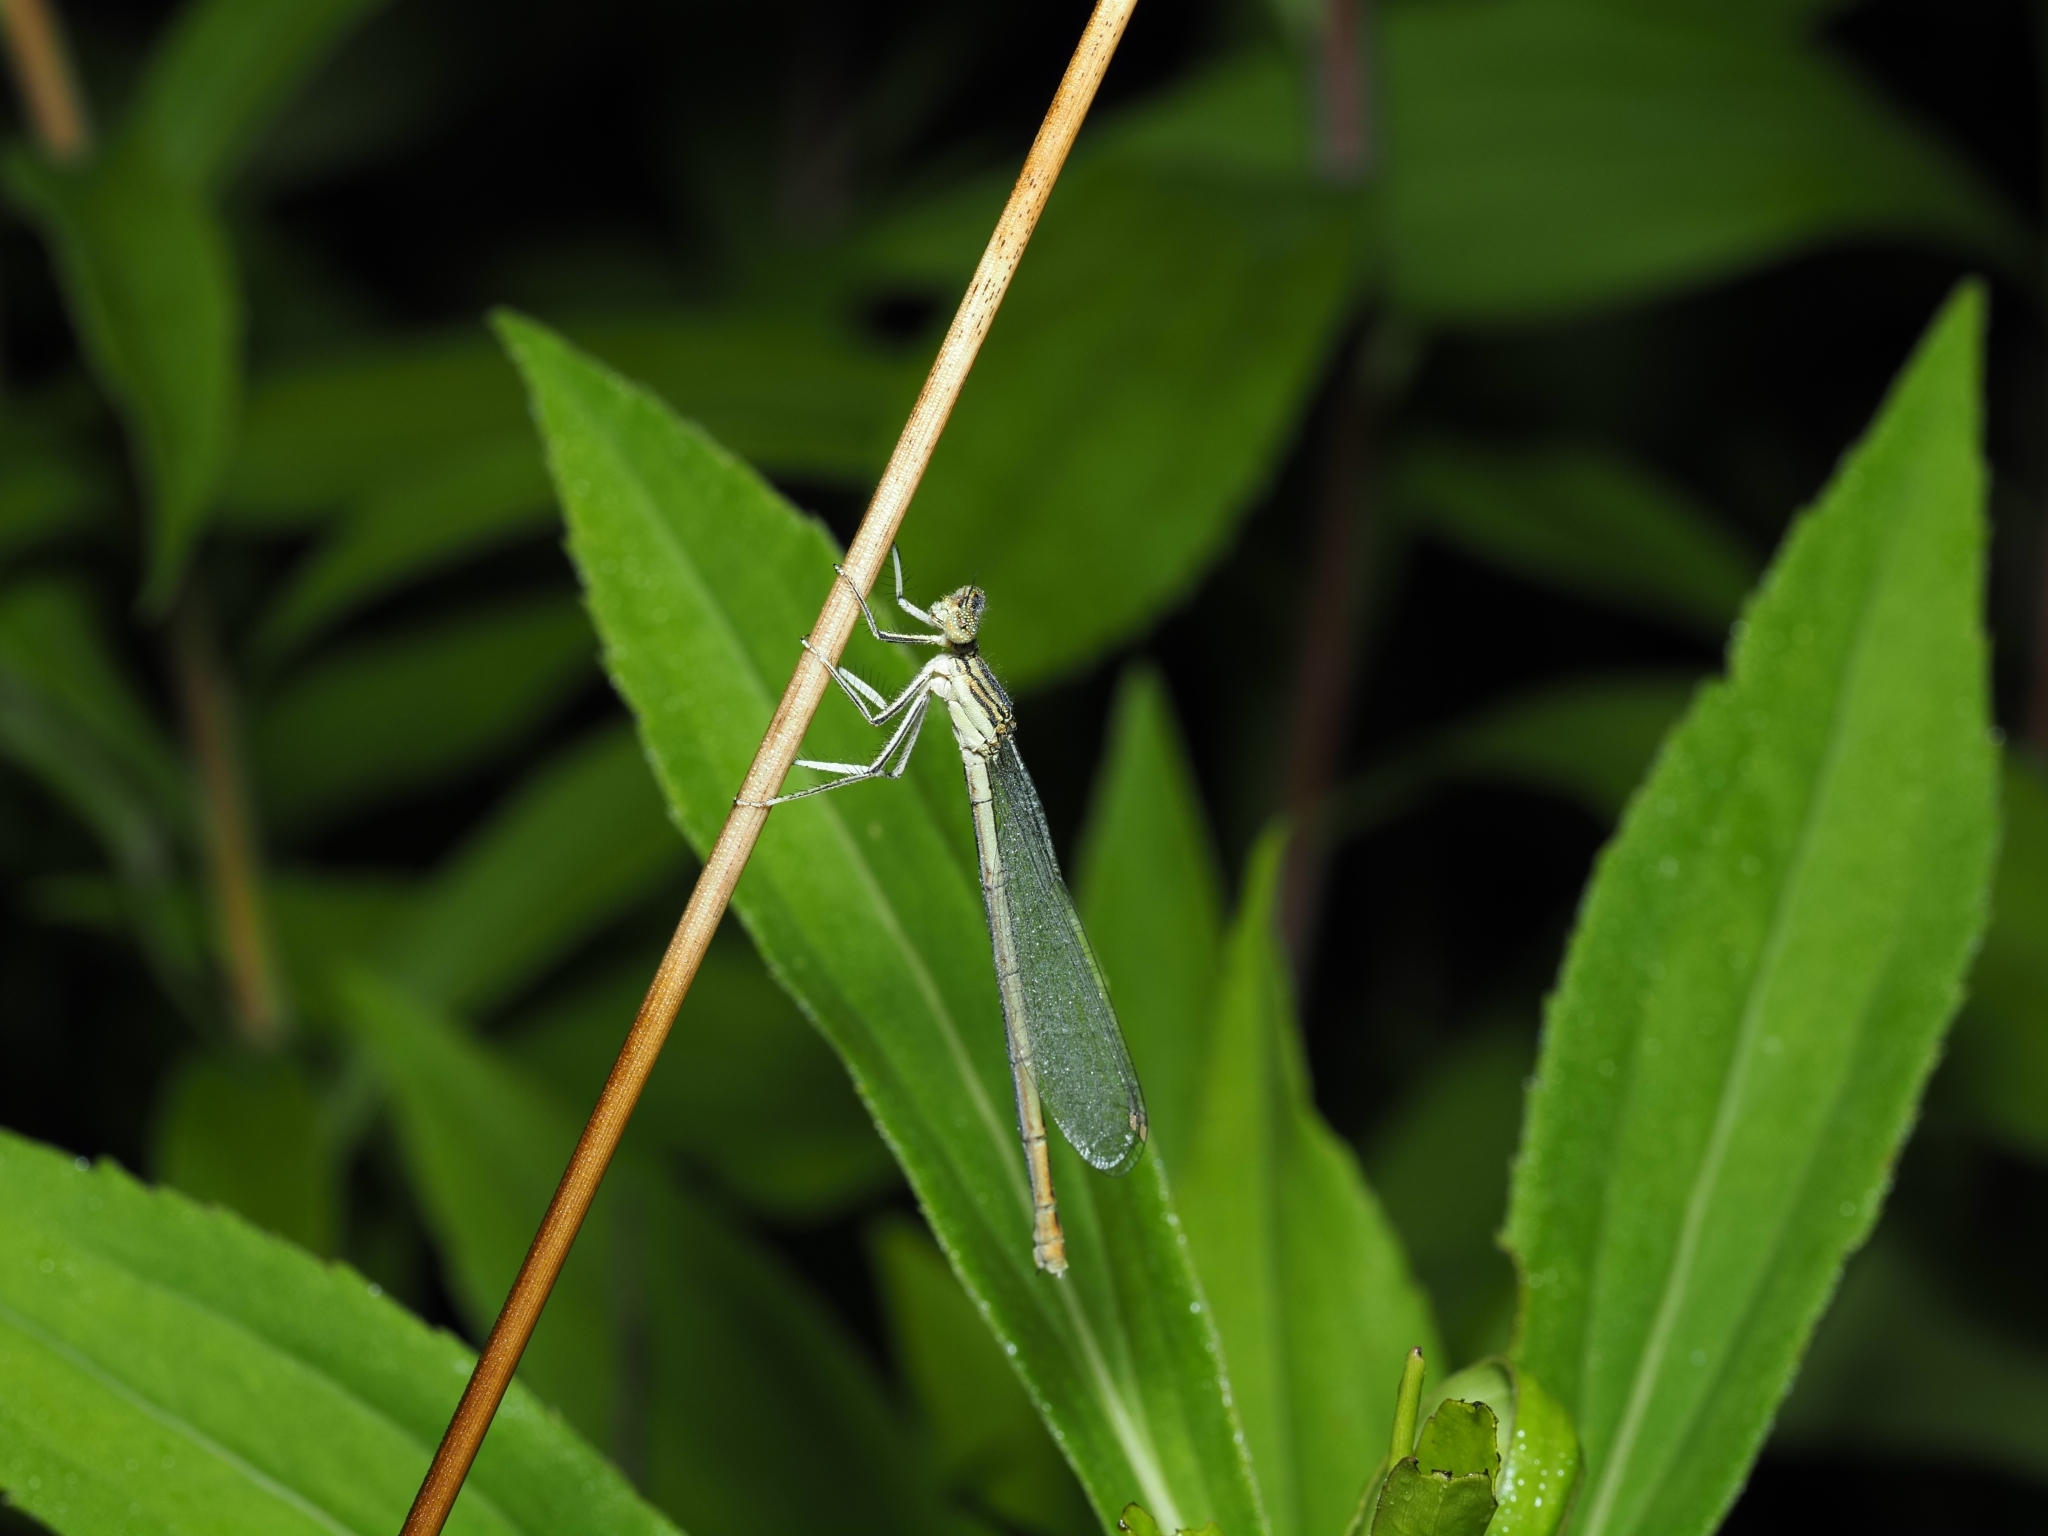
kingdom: Animalia
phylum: Arthropoda
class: Insecta
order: Odonata
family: Platycnemididae
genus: Platycnemis
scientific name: Platycnemis pennipes
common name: White-legged damselfly
